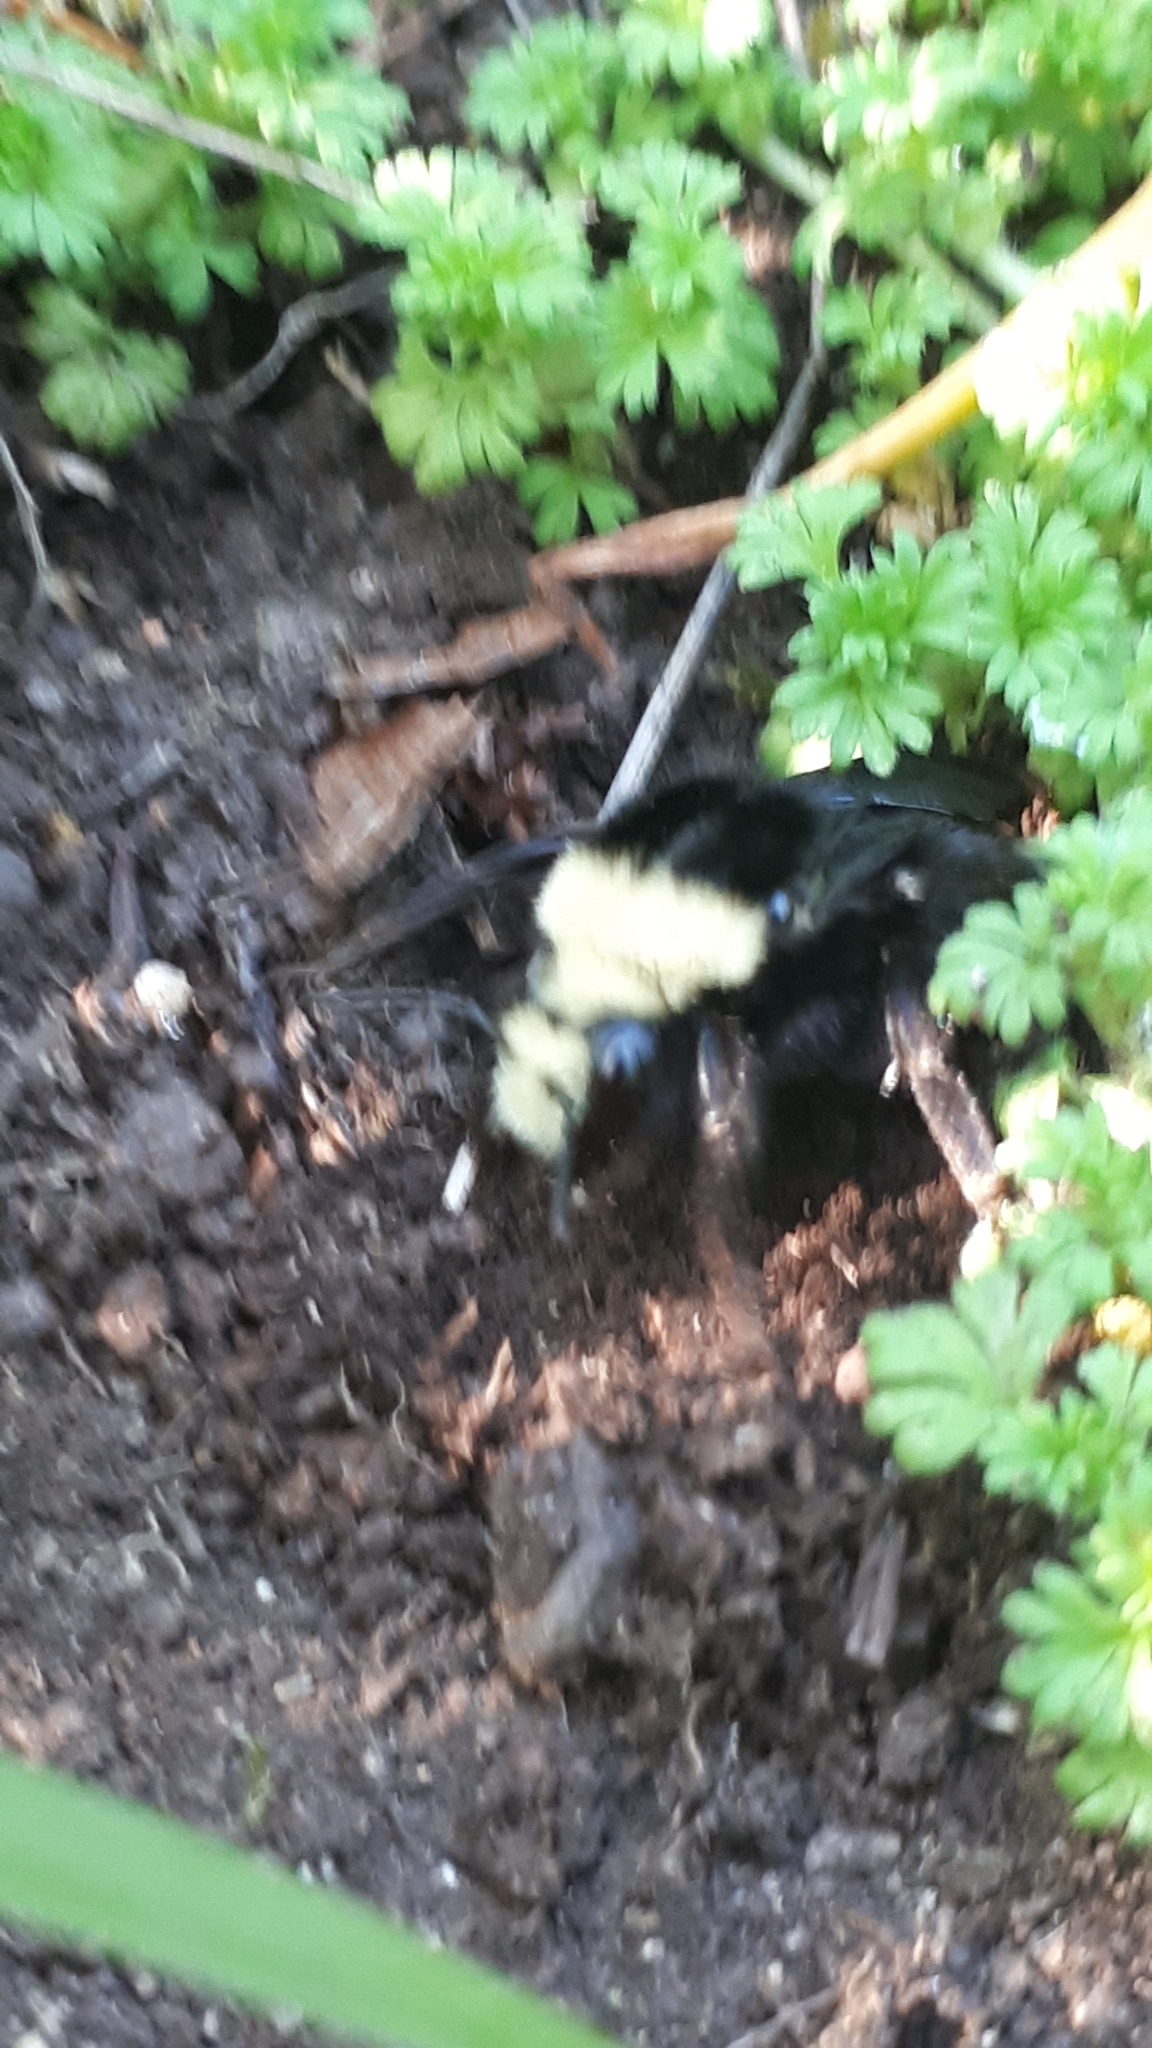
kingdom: Animalia
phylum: Arthropoda
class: Insecta
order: Hymenoptera
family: Apidae
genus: Bombus
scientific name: Bombus vosnesenskii
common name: Vosnesensky bumble bee
